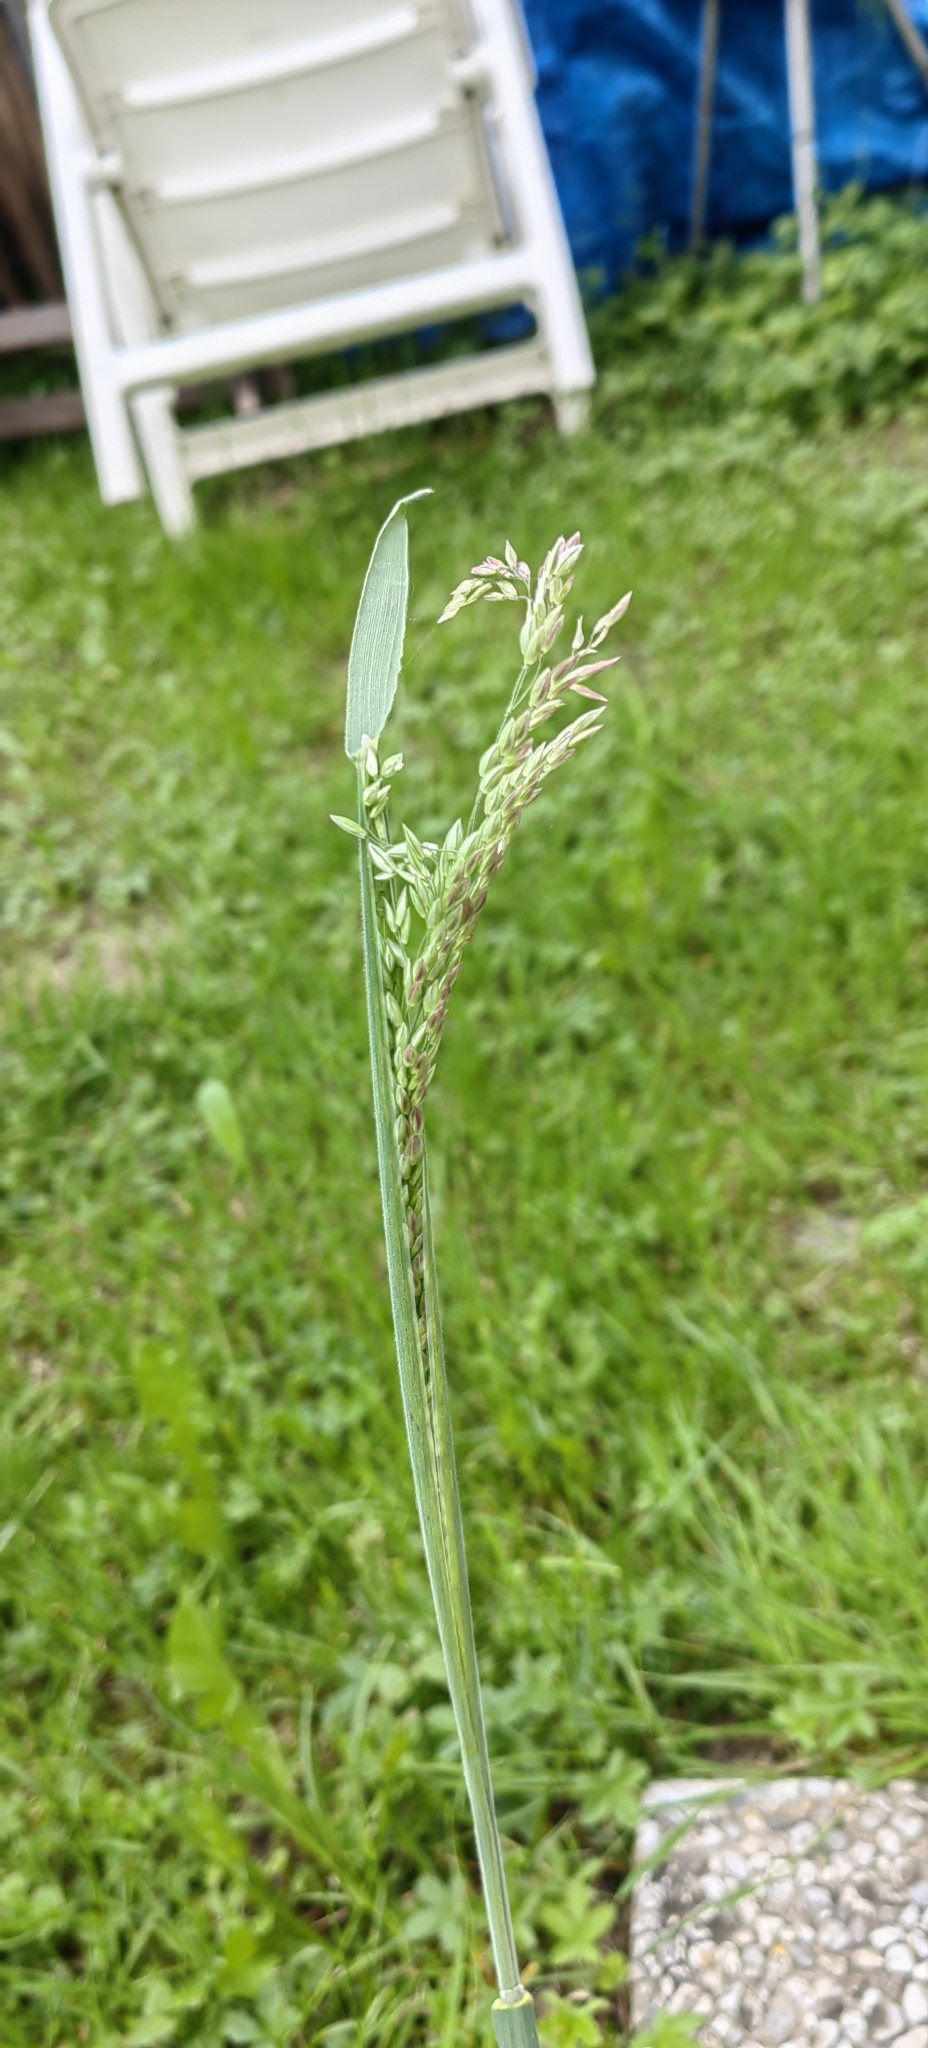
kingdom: Plantae
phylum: Tracheophyta
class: Liliopsida
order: Poales
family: Poaceae
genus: Holcus
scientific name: Holcus lanatus
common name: Yorkshire-fog
